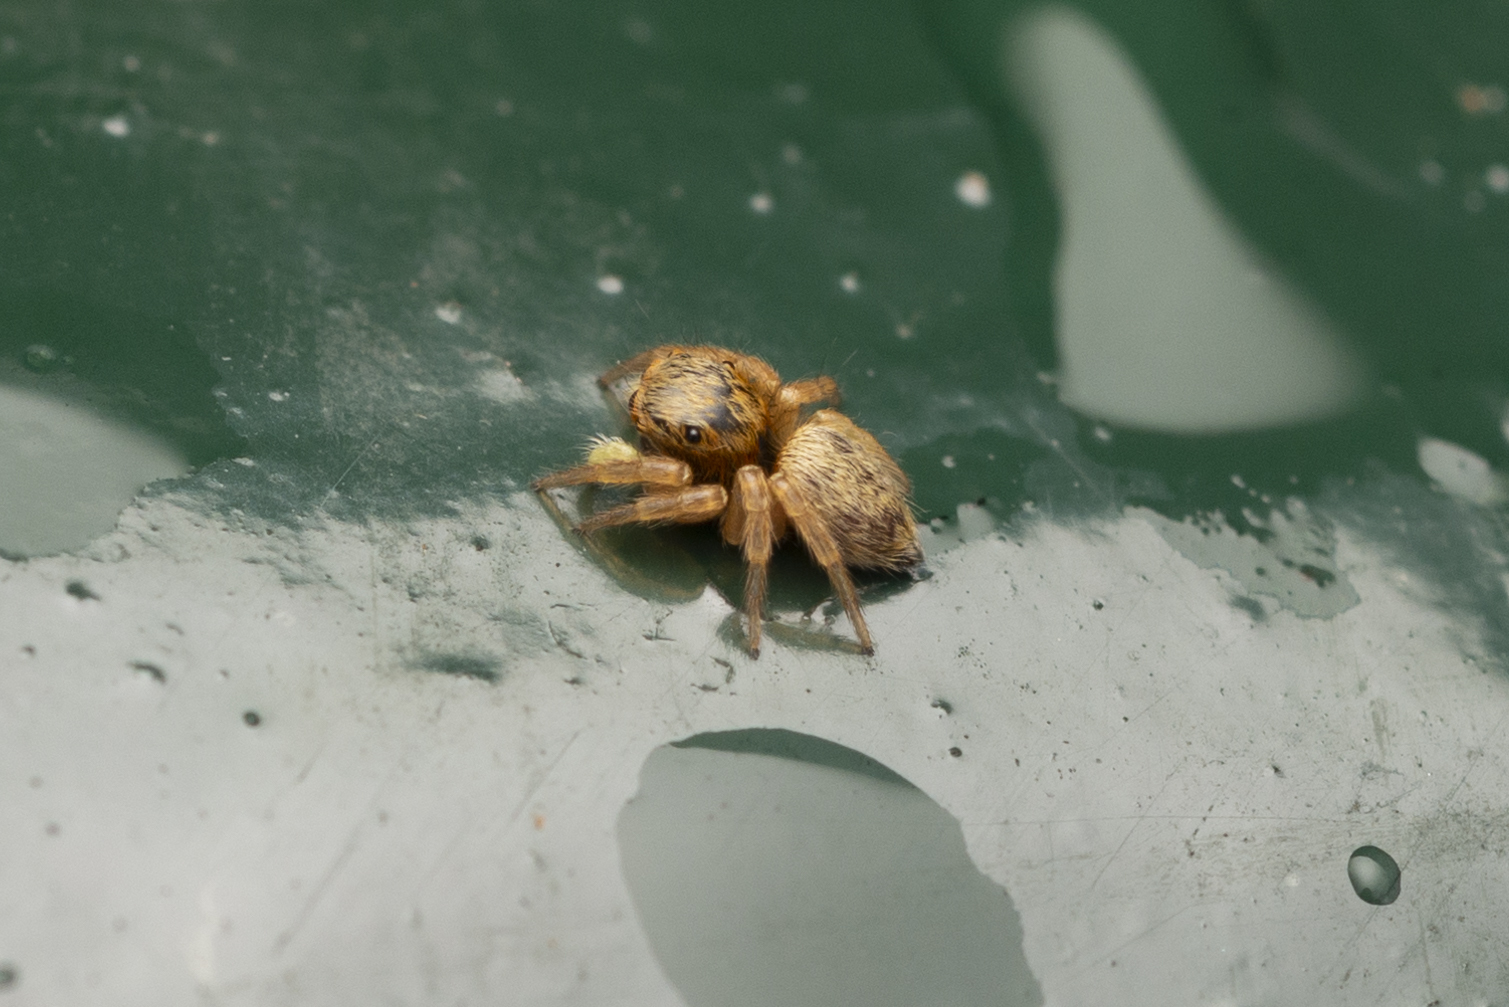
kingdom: Animalia
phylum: Arthropoda
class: Arachnida
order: Araneae
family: Salticidae
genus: Carrhotus
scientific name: Carrhotus sannio
